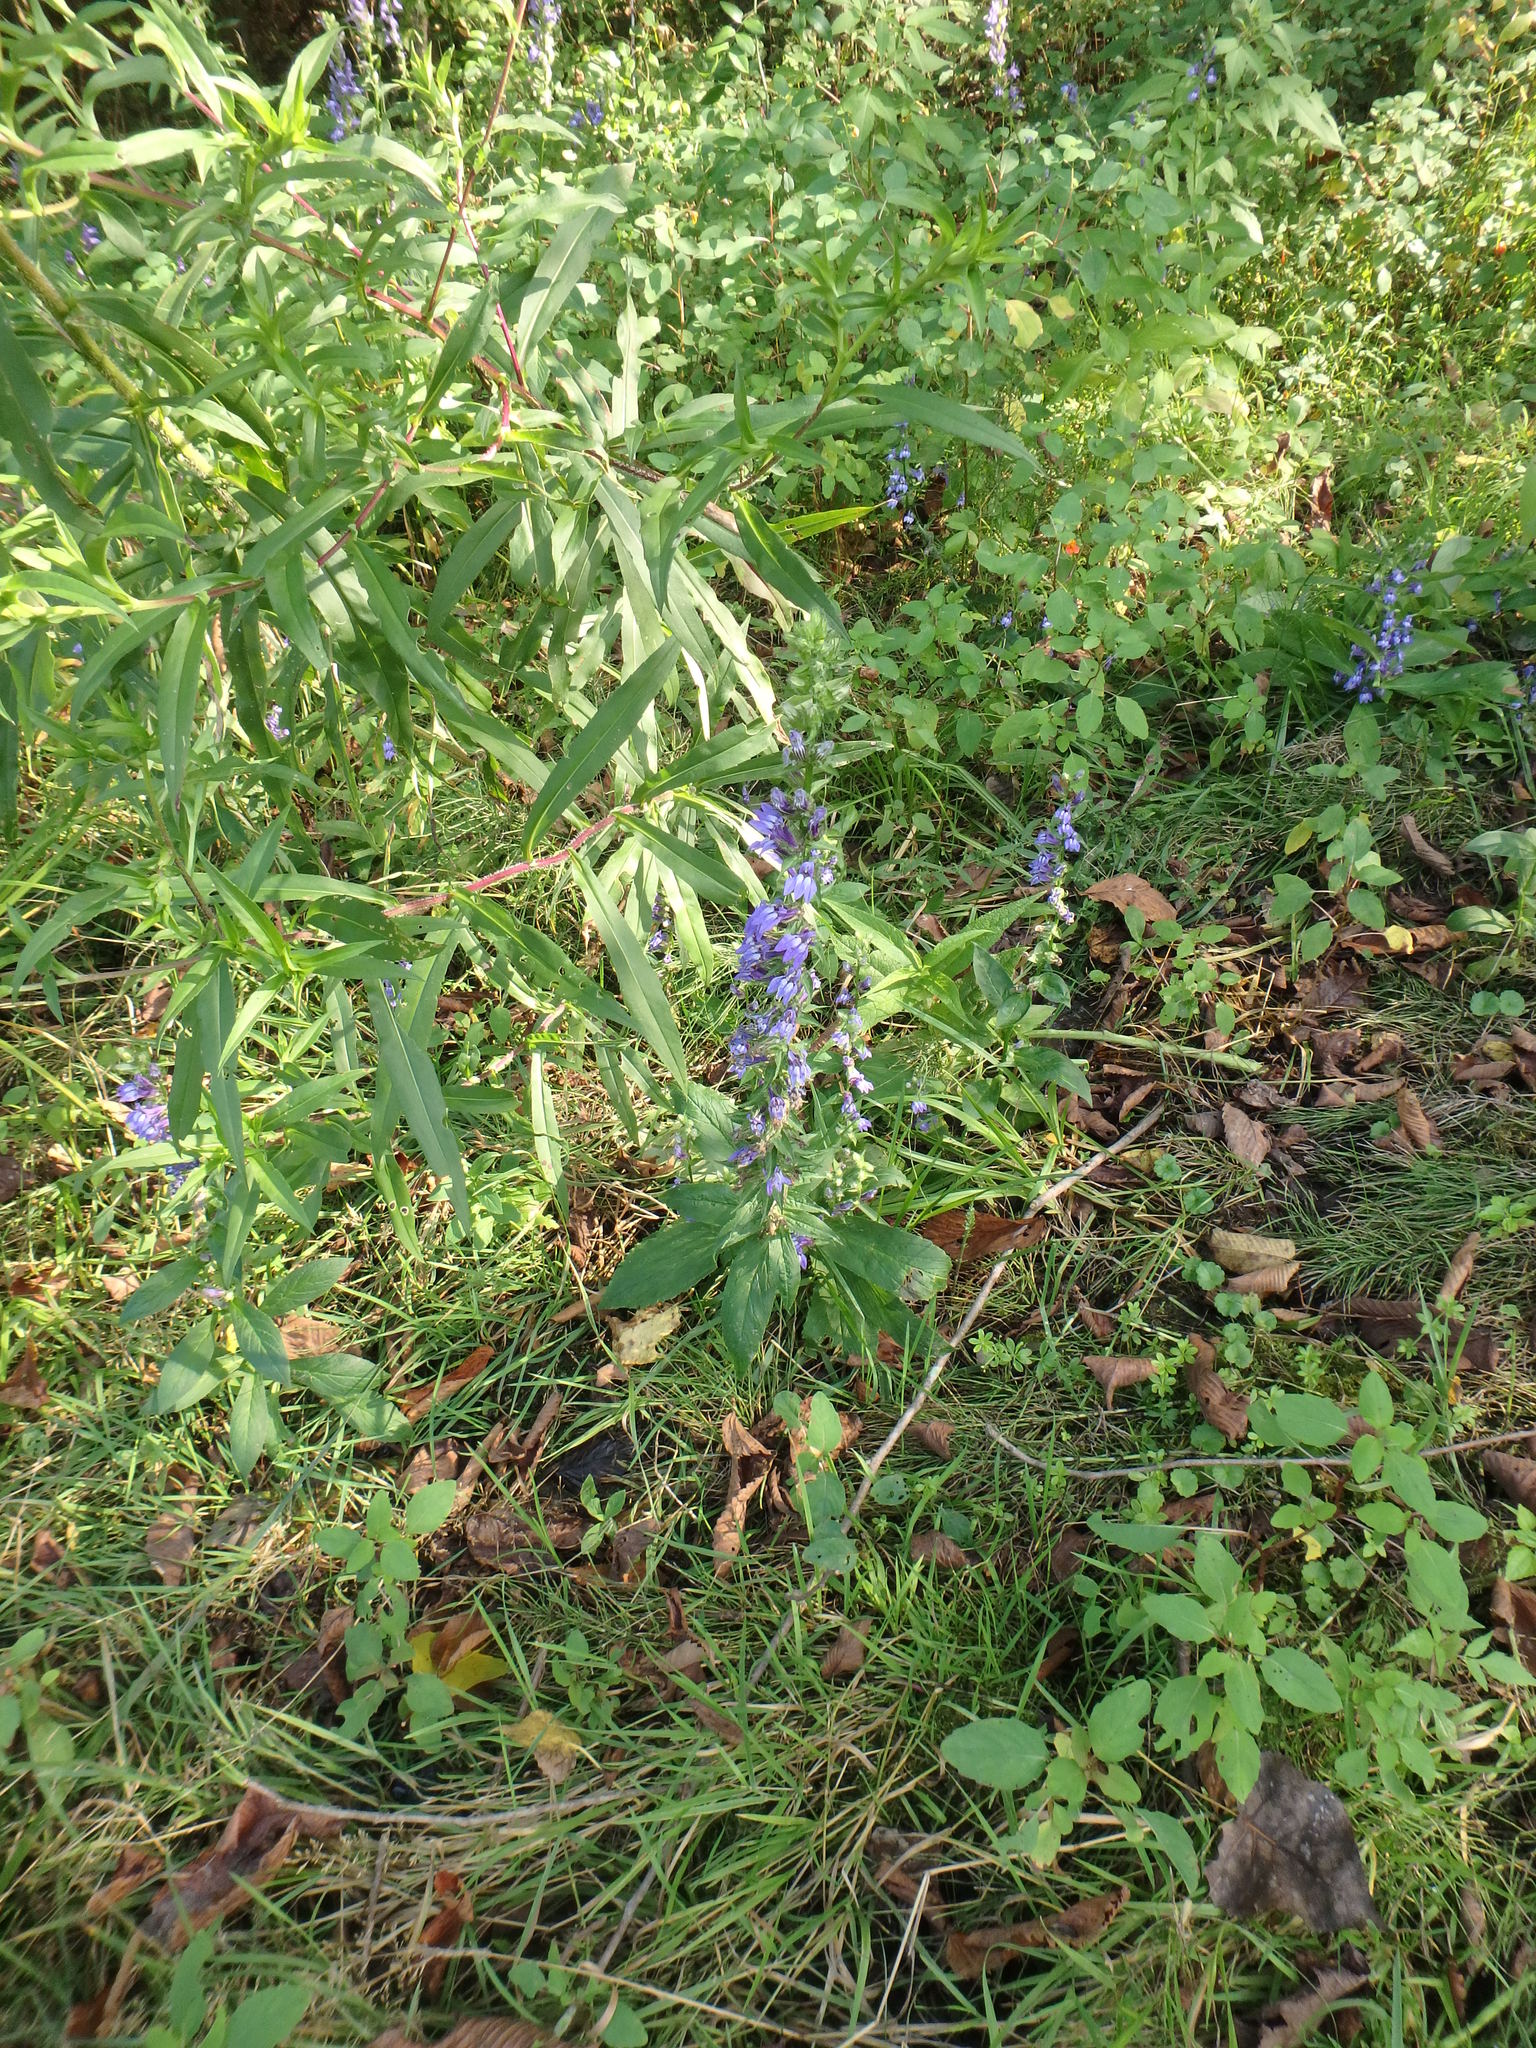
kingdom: Plantae
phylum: Tracheophyta
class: Magnoliopsida
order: Asterales
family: Campanulaceae
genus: Lobelia
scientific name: Lobelia siphilitica
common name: Great lobelia
